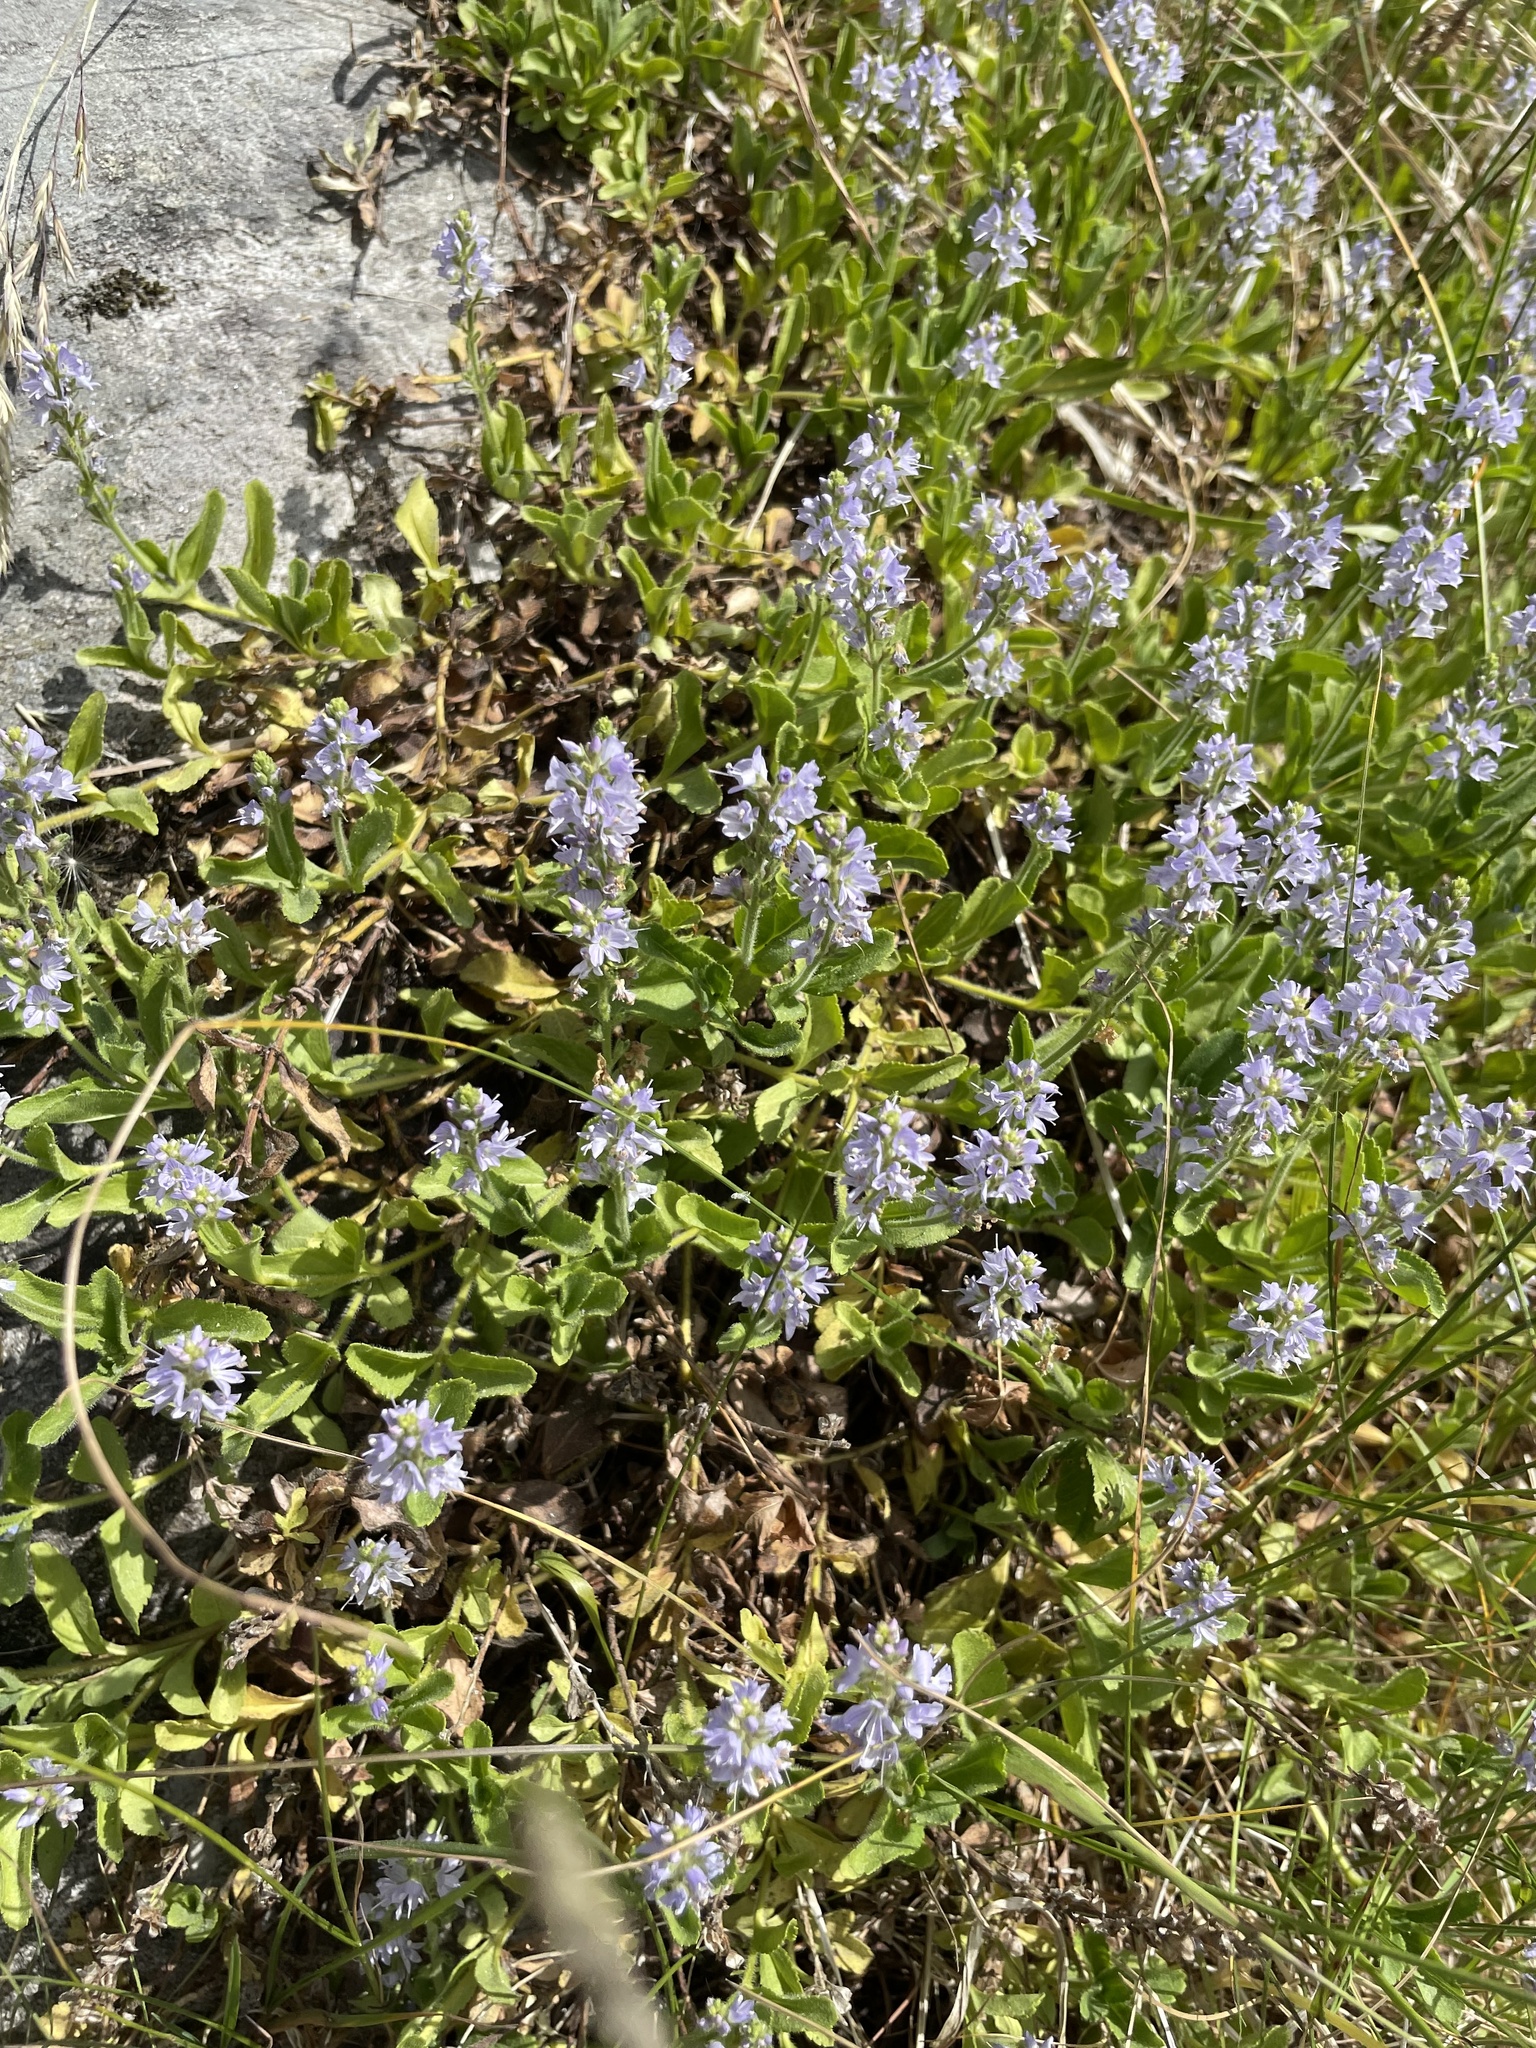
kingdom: Plantae
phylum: Tracheophyta
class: Magnoliopsida
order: Lamiales
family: Plantaginaceae
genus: Veronica
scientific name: Veronica officinalis
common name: Common speedwell
